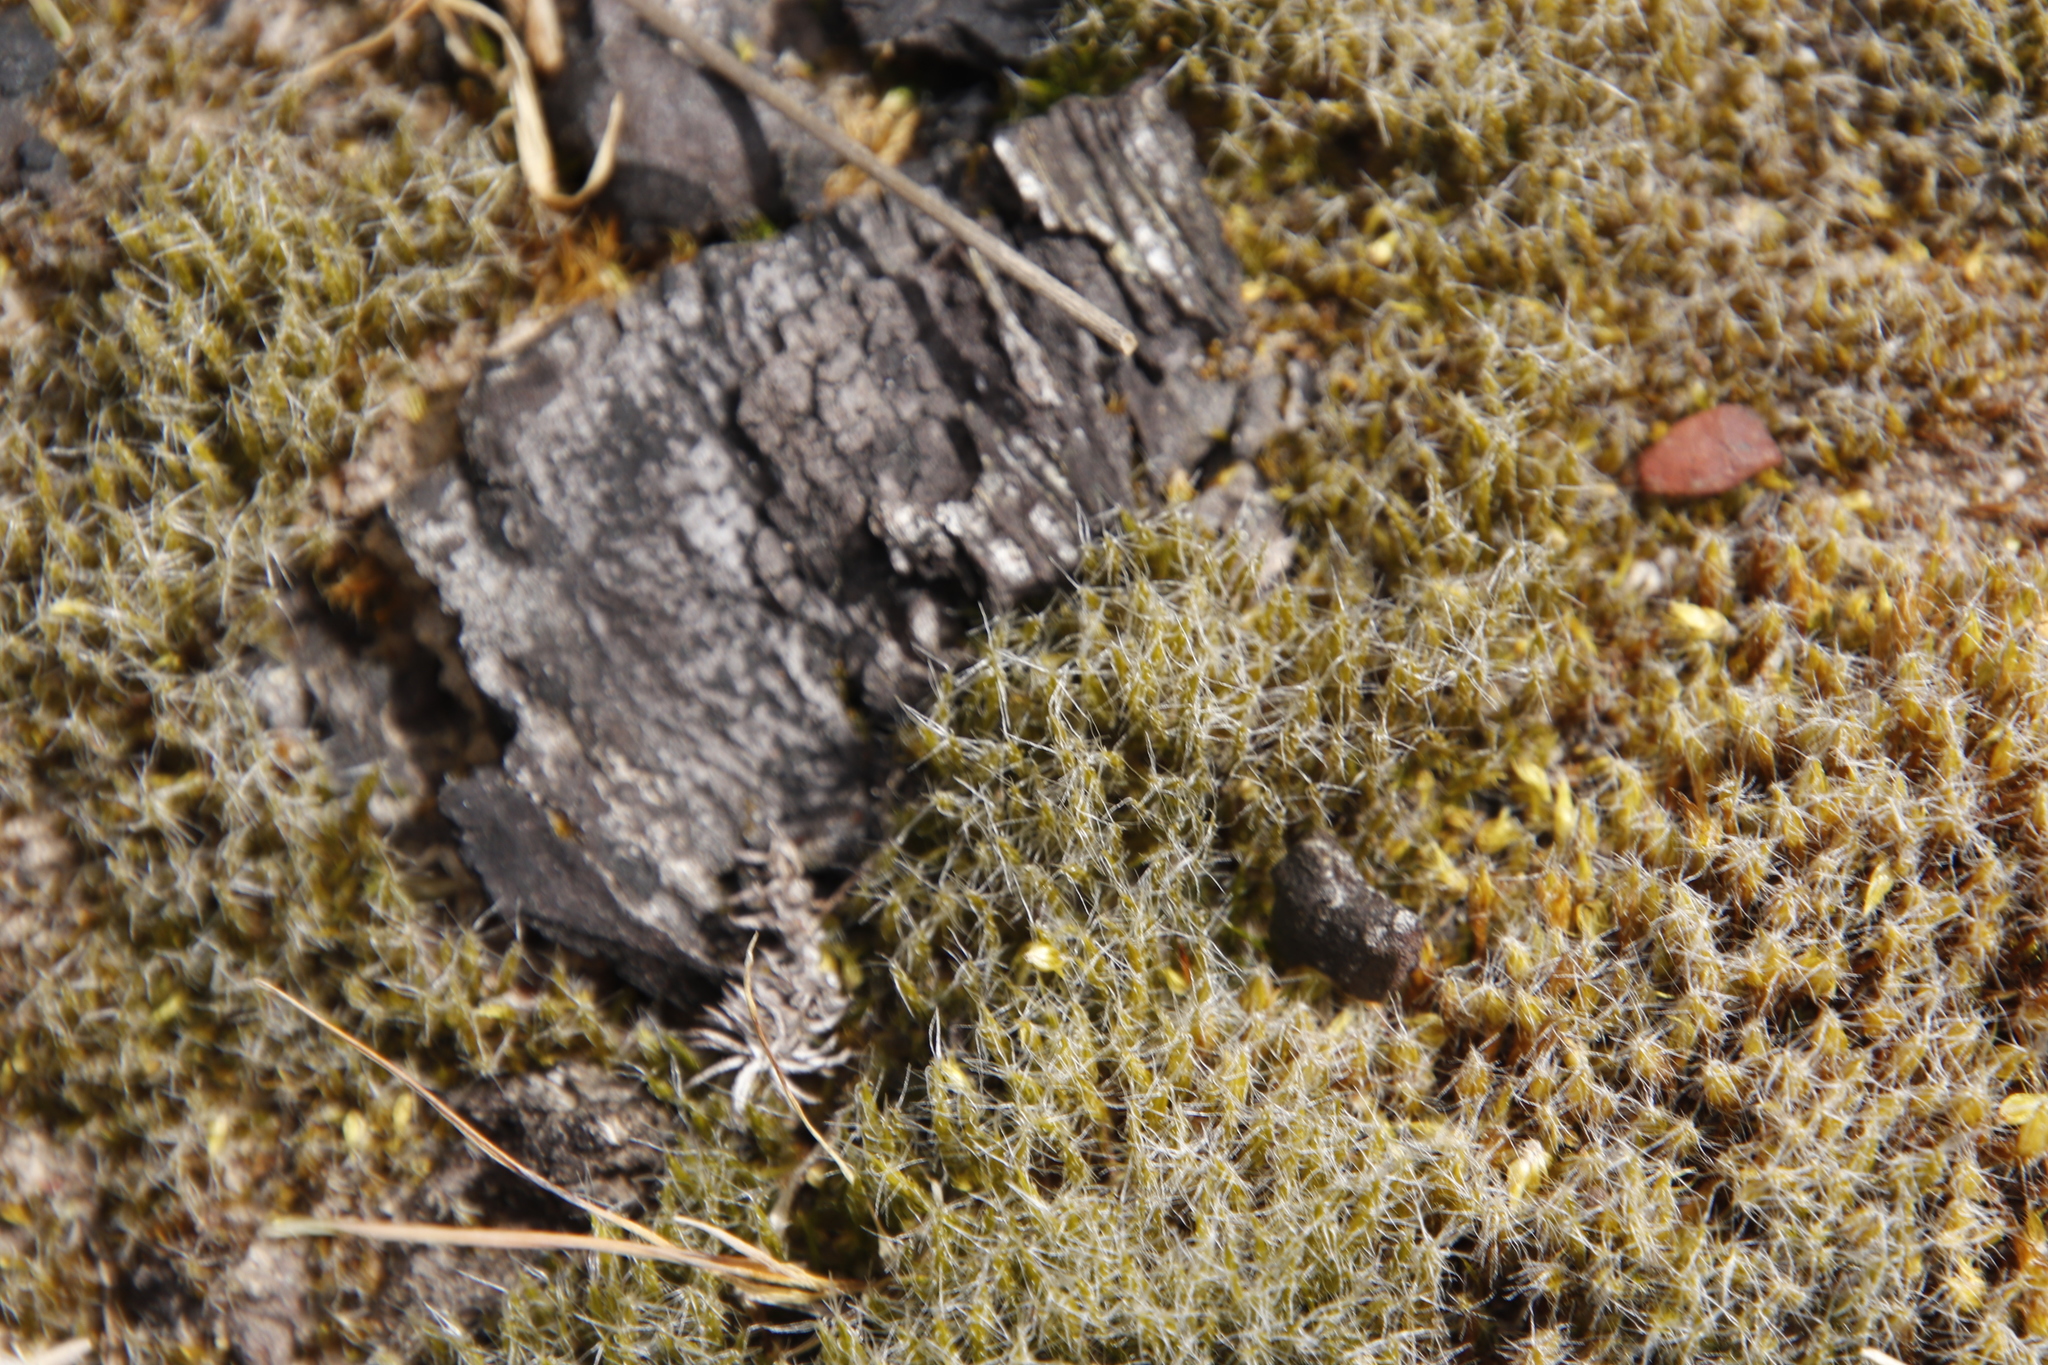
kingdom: Plantae
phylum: Bryophyta
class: Bryopsida
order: Dicranales
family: Leucobryaceae
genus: Campylopus
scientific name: Campylopus introflexus
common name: Heath star moss
